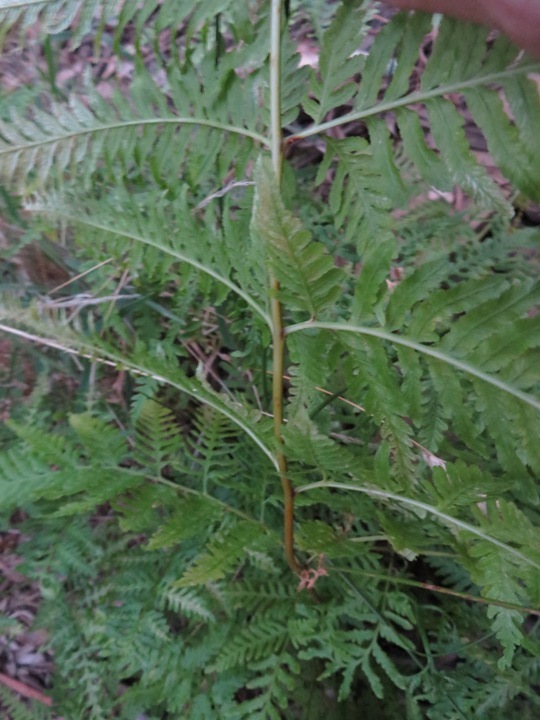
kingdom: Plantae
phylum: Tracheophyta
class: Polypodiopsida
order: Polypodiales
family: Pteridaceae
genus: Pteris
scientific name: Pteris tremula
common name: Australian brake
